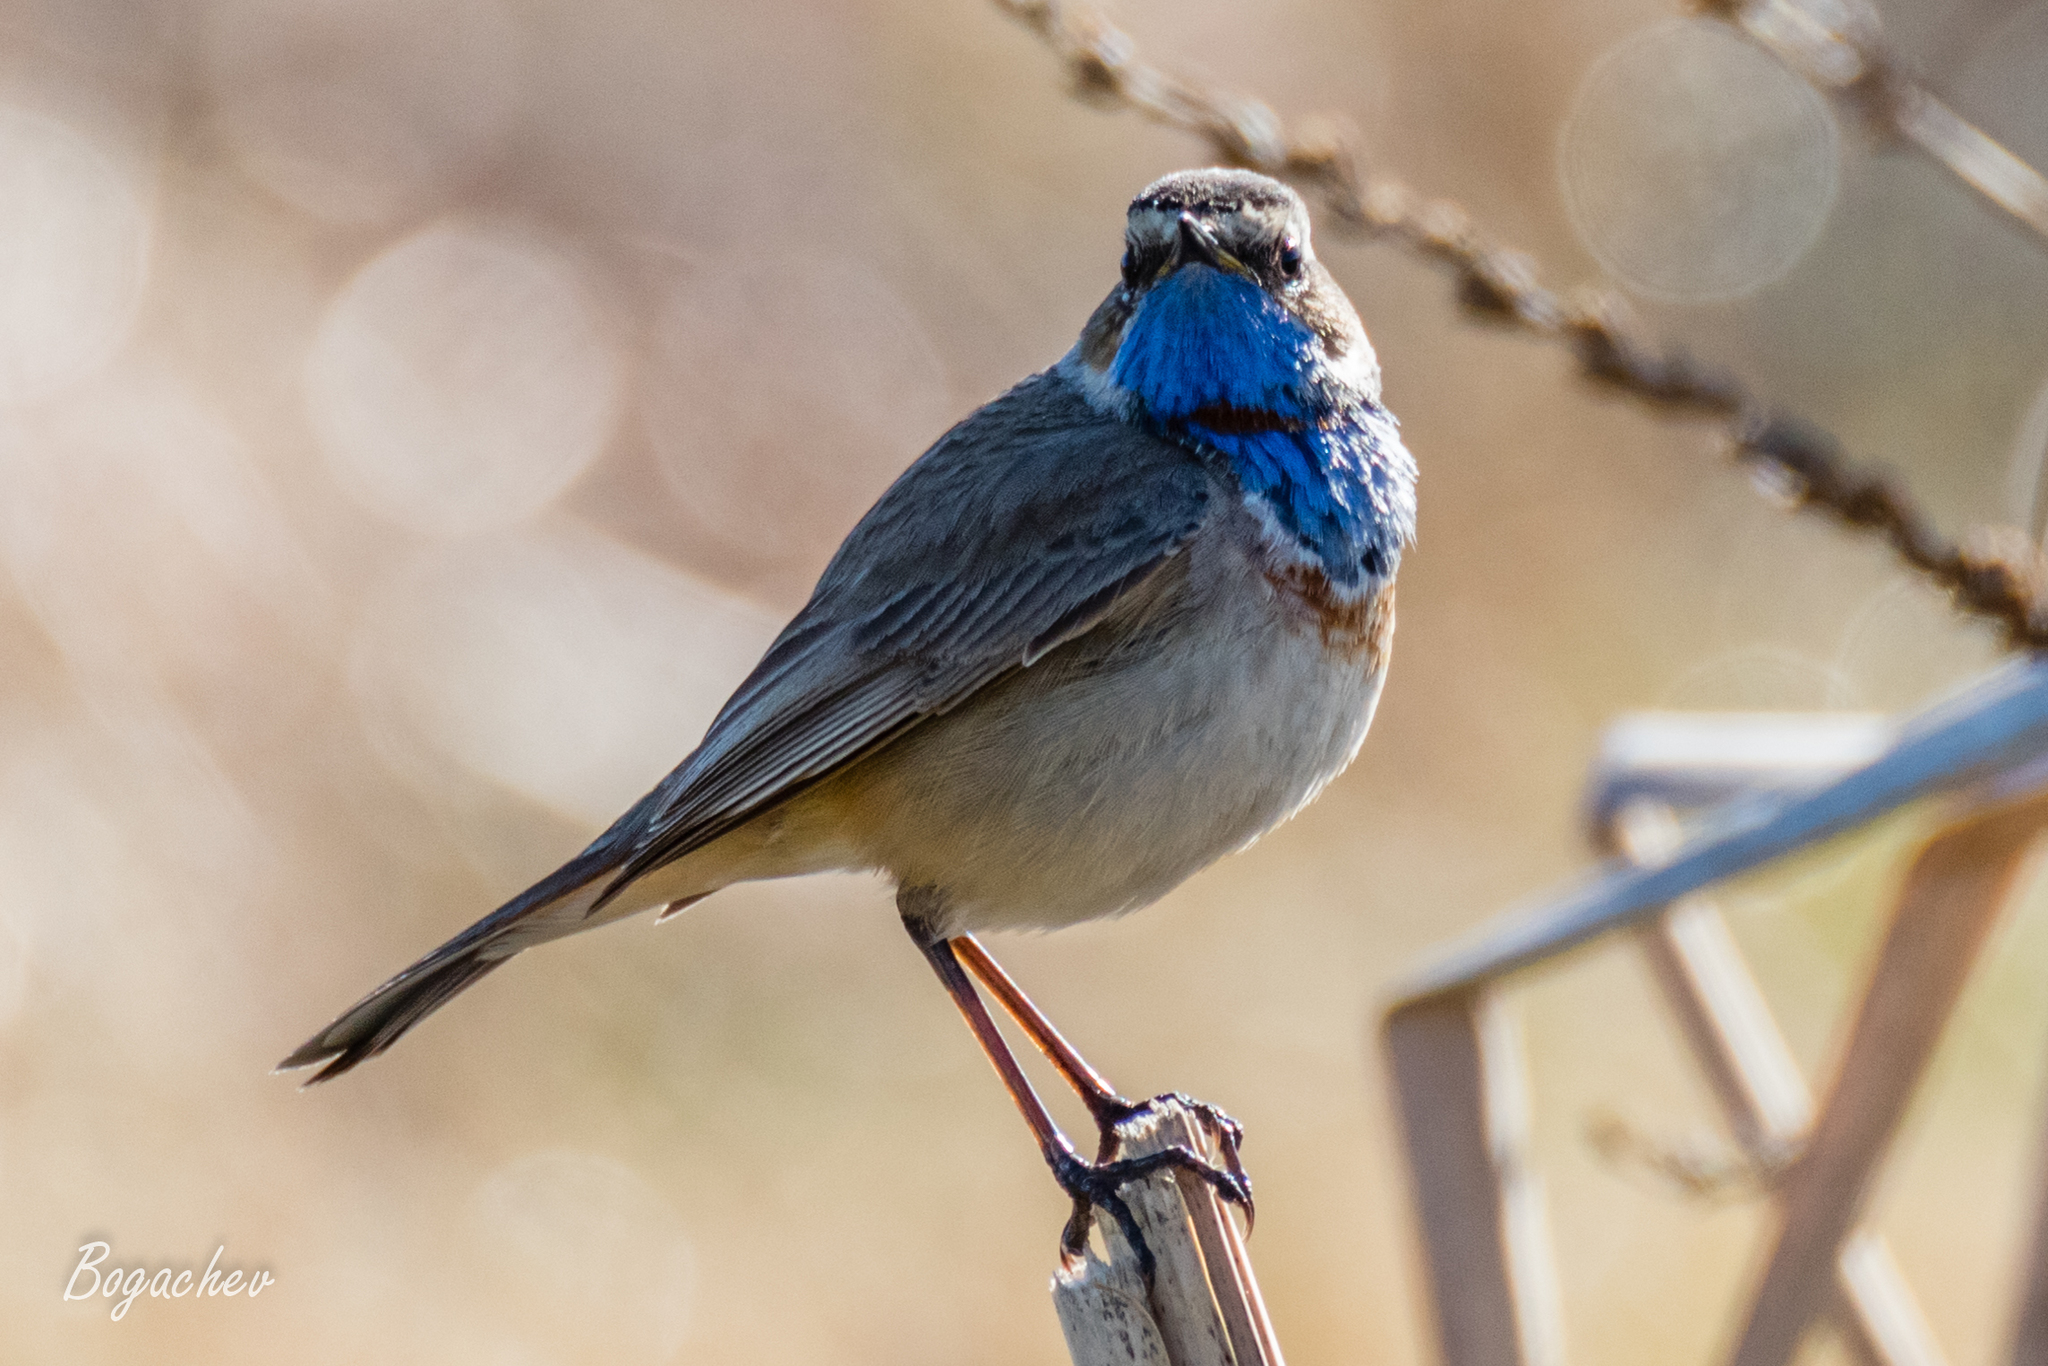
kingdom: Animalia
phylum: Chordata
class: Aves
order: Passeriformes
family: Muscicapidae
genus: Luscinia
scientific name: Luscinia svecica
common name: Bluethroat
